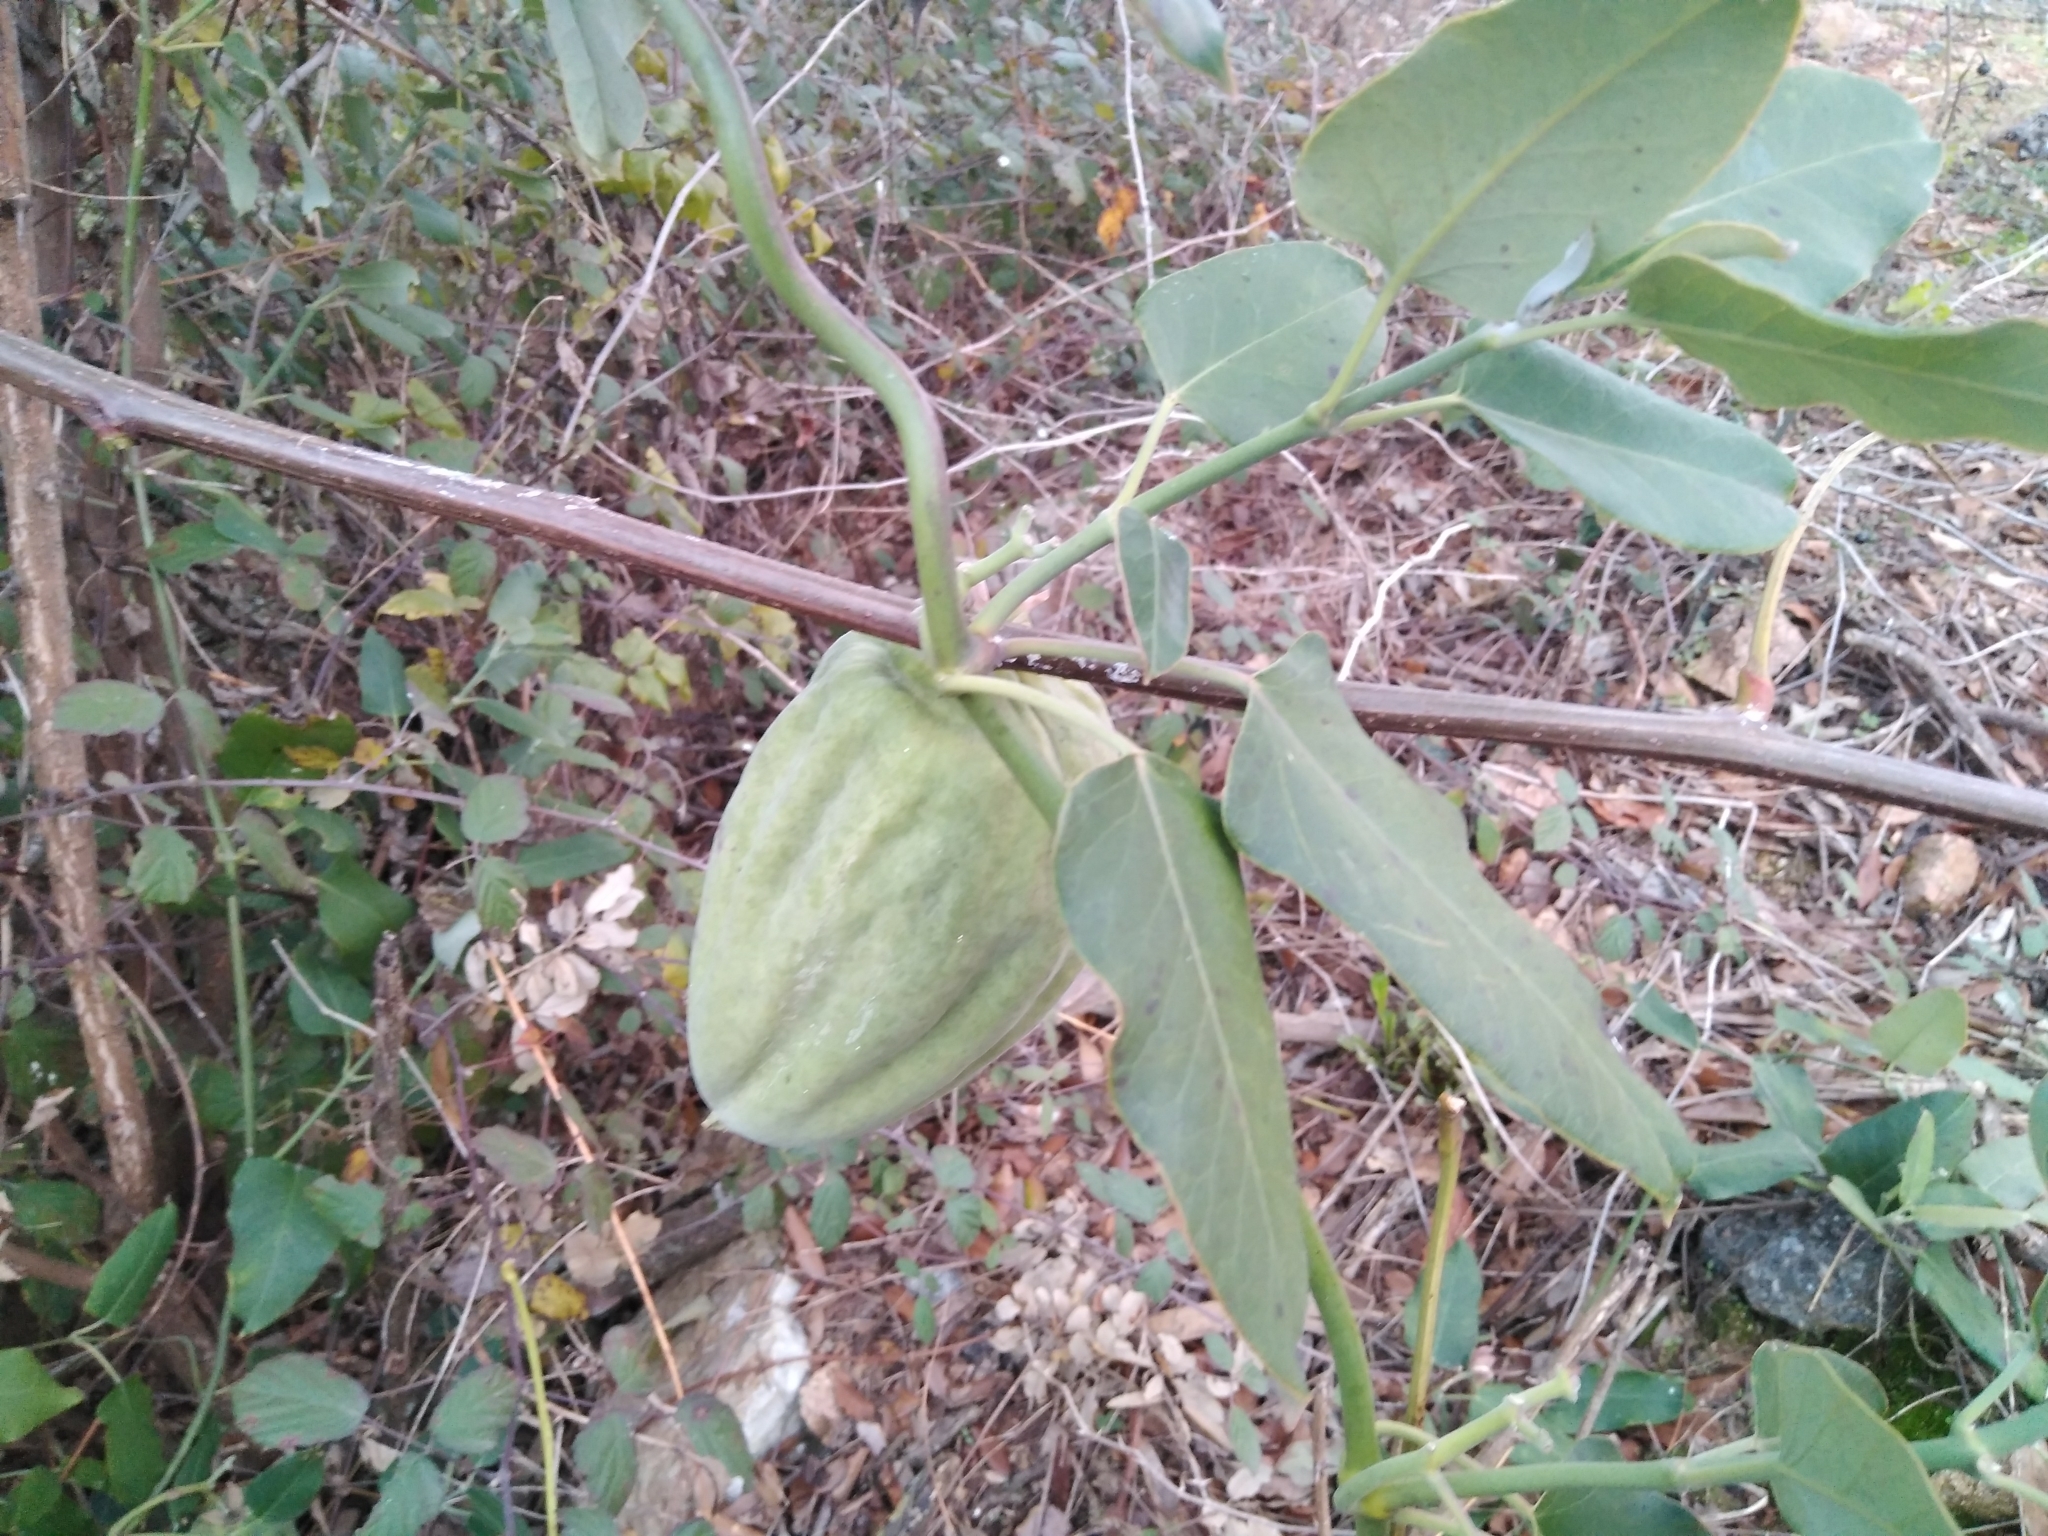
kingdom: Plantae
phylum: Tracheophyta
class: Magnoliopsida
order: Gentianales
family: Apocynaceae
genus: Araujia
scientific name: Araujia sericifera
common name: White bladderflower
